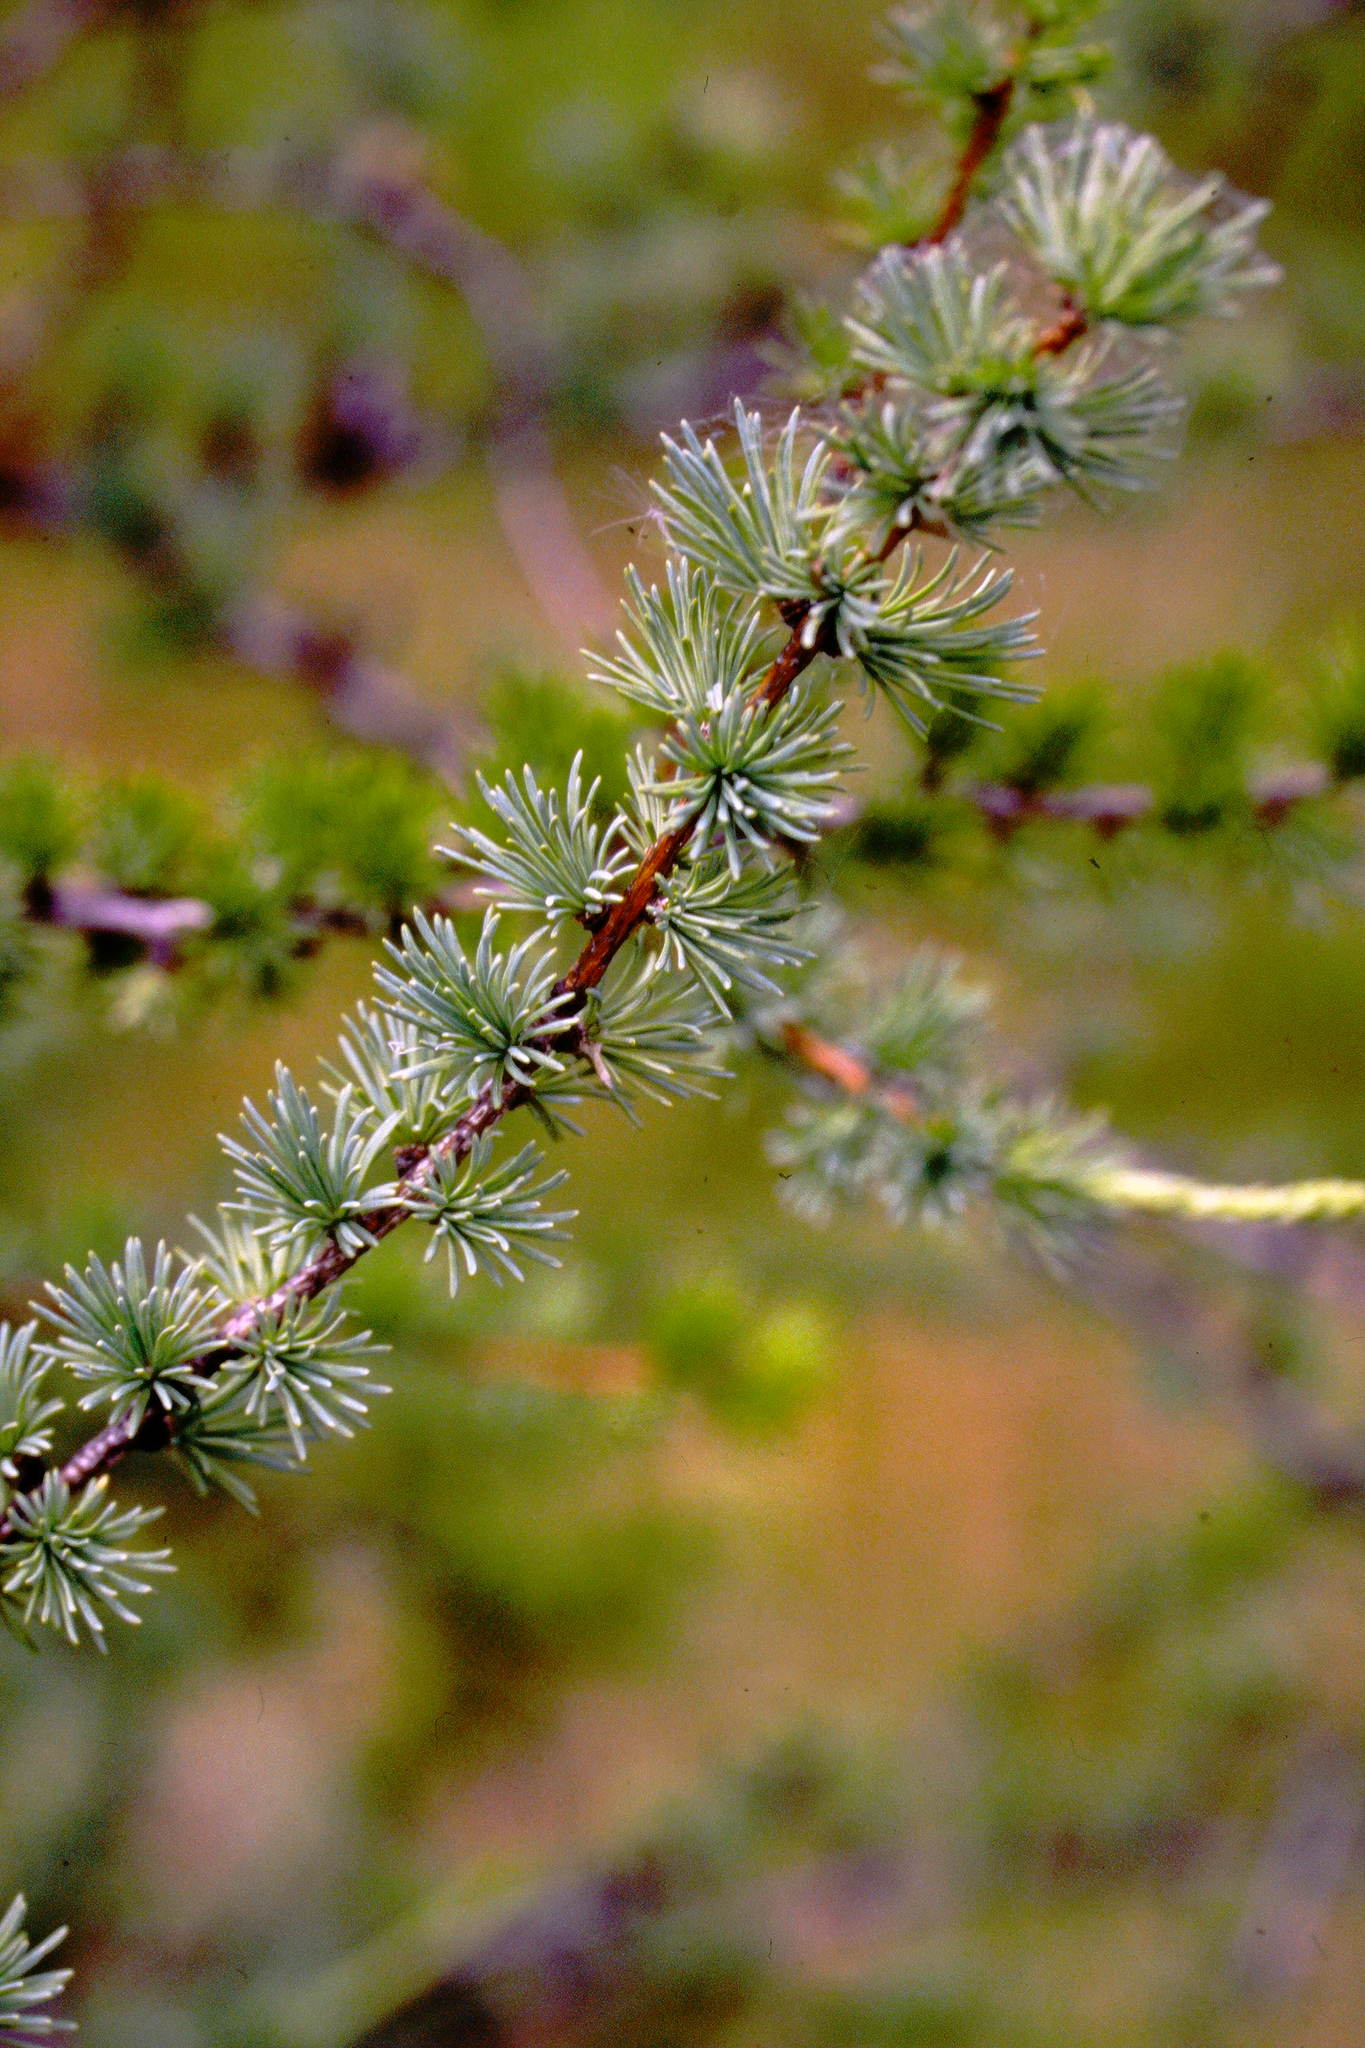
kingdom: Plantae
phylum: Tracheophyta
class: Pinopsida
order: Pinales
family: Pinaceae
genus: Larix
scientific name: Larix laricina
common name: American larch
